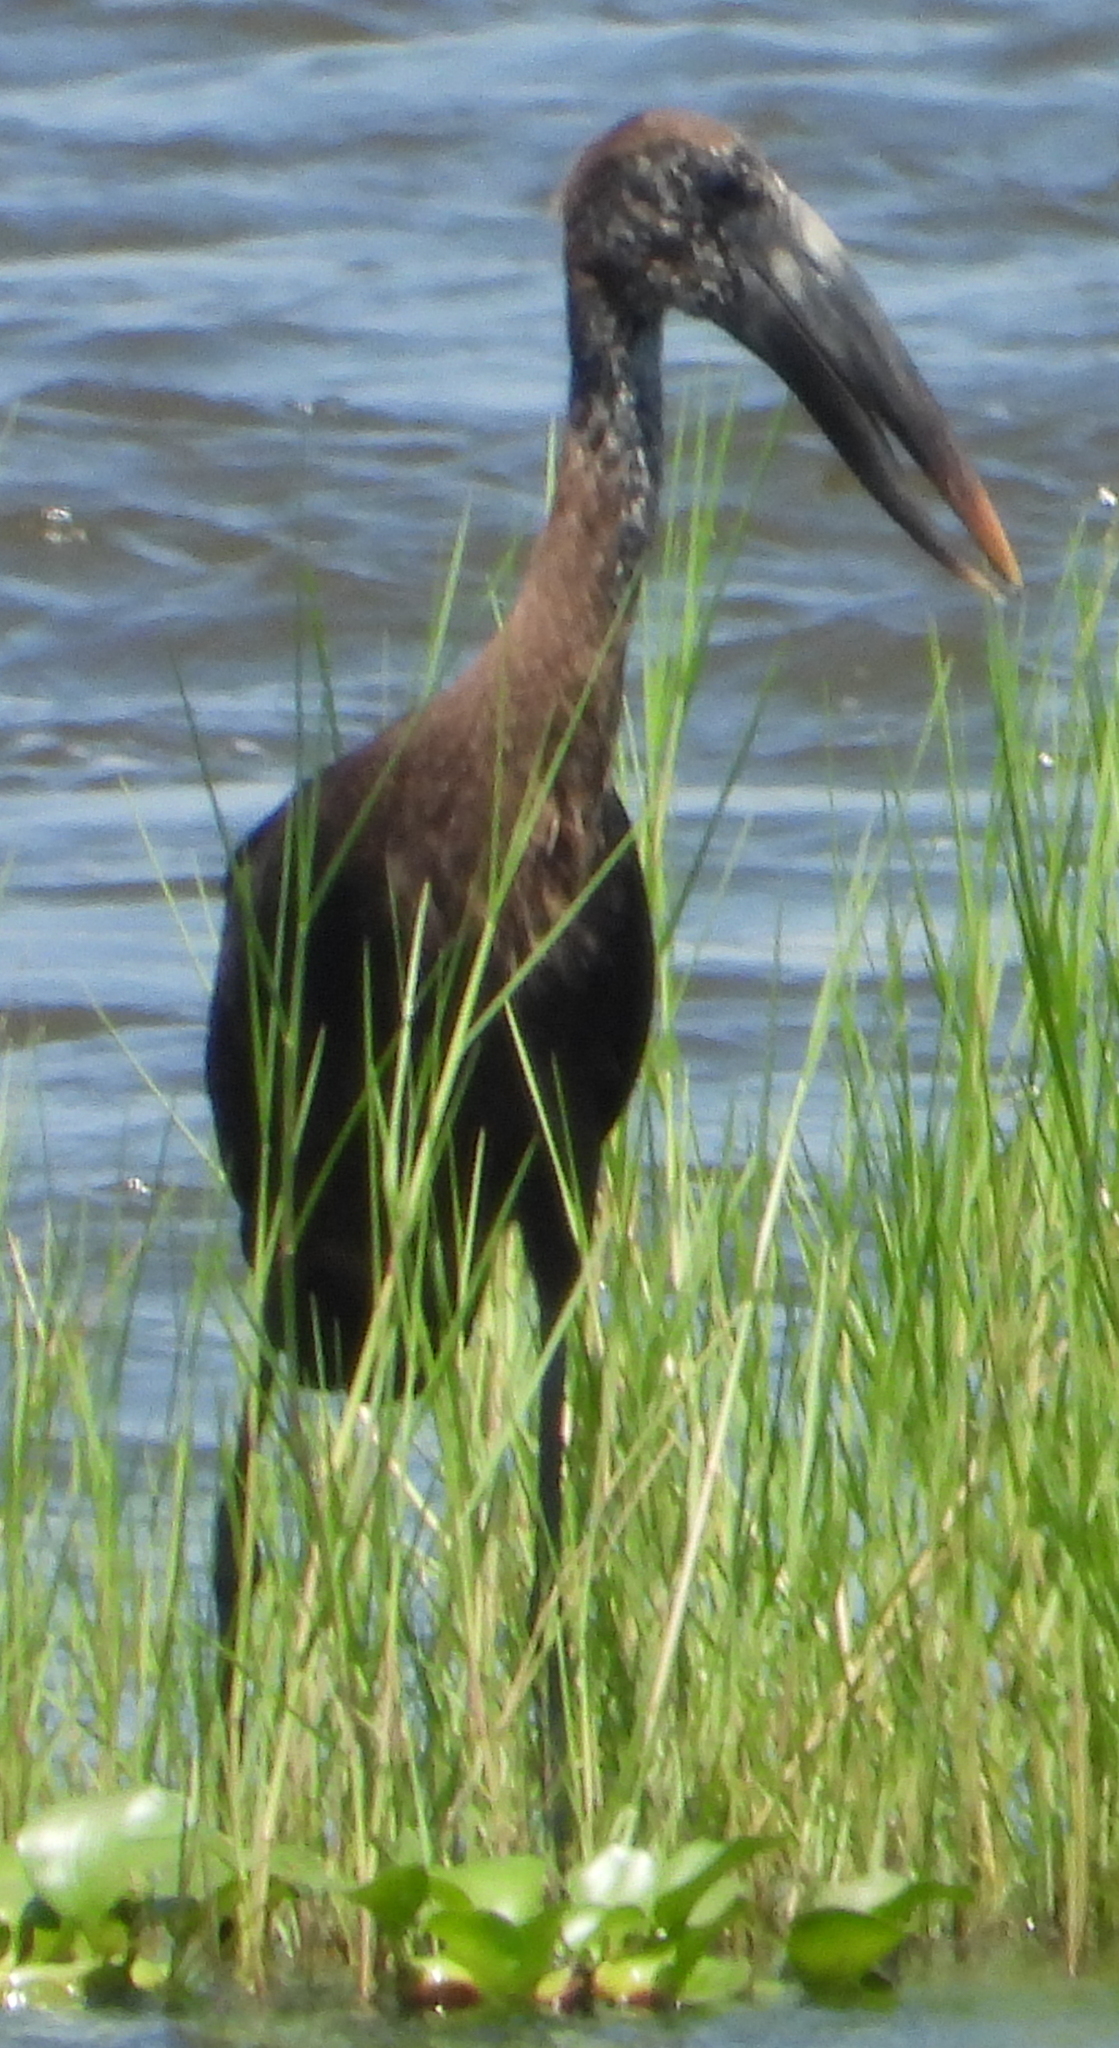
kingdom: Animalia
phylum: Chordata
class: Aves
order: Ciconiiformes
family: Ciconiidae
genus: Anastomus
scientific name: Anastomus lamelligerus
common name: African openbill
